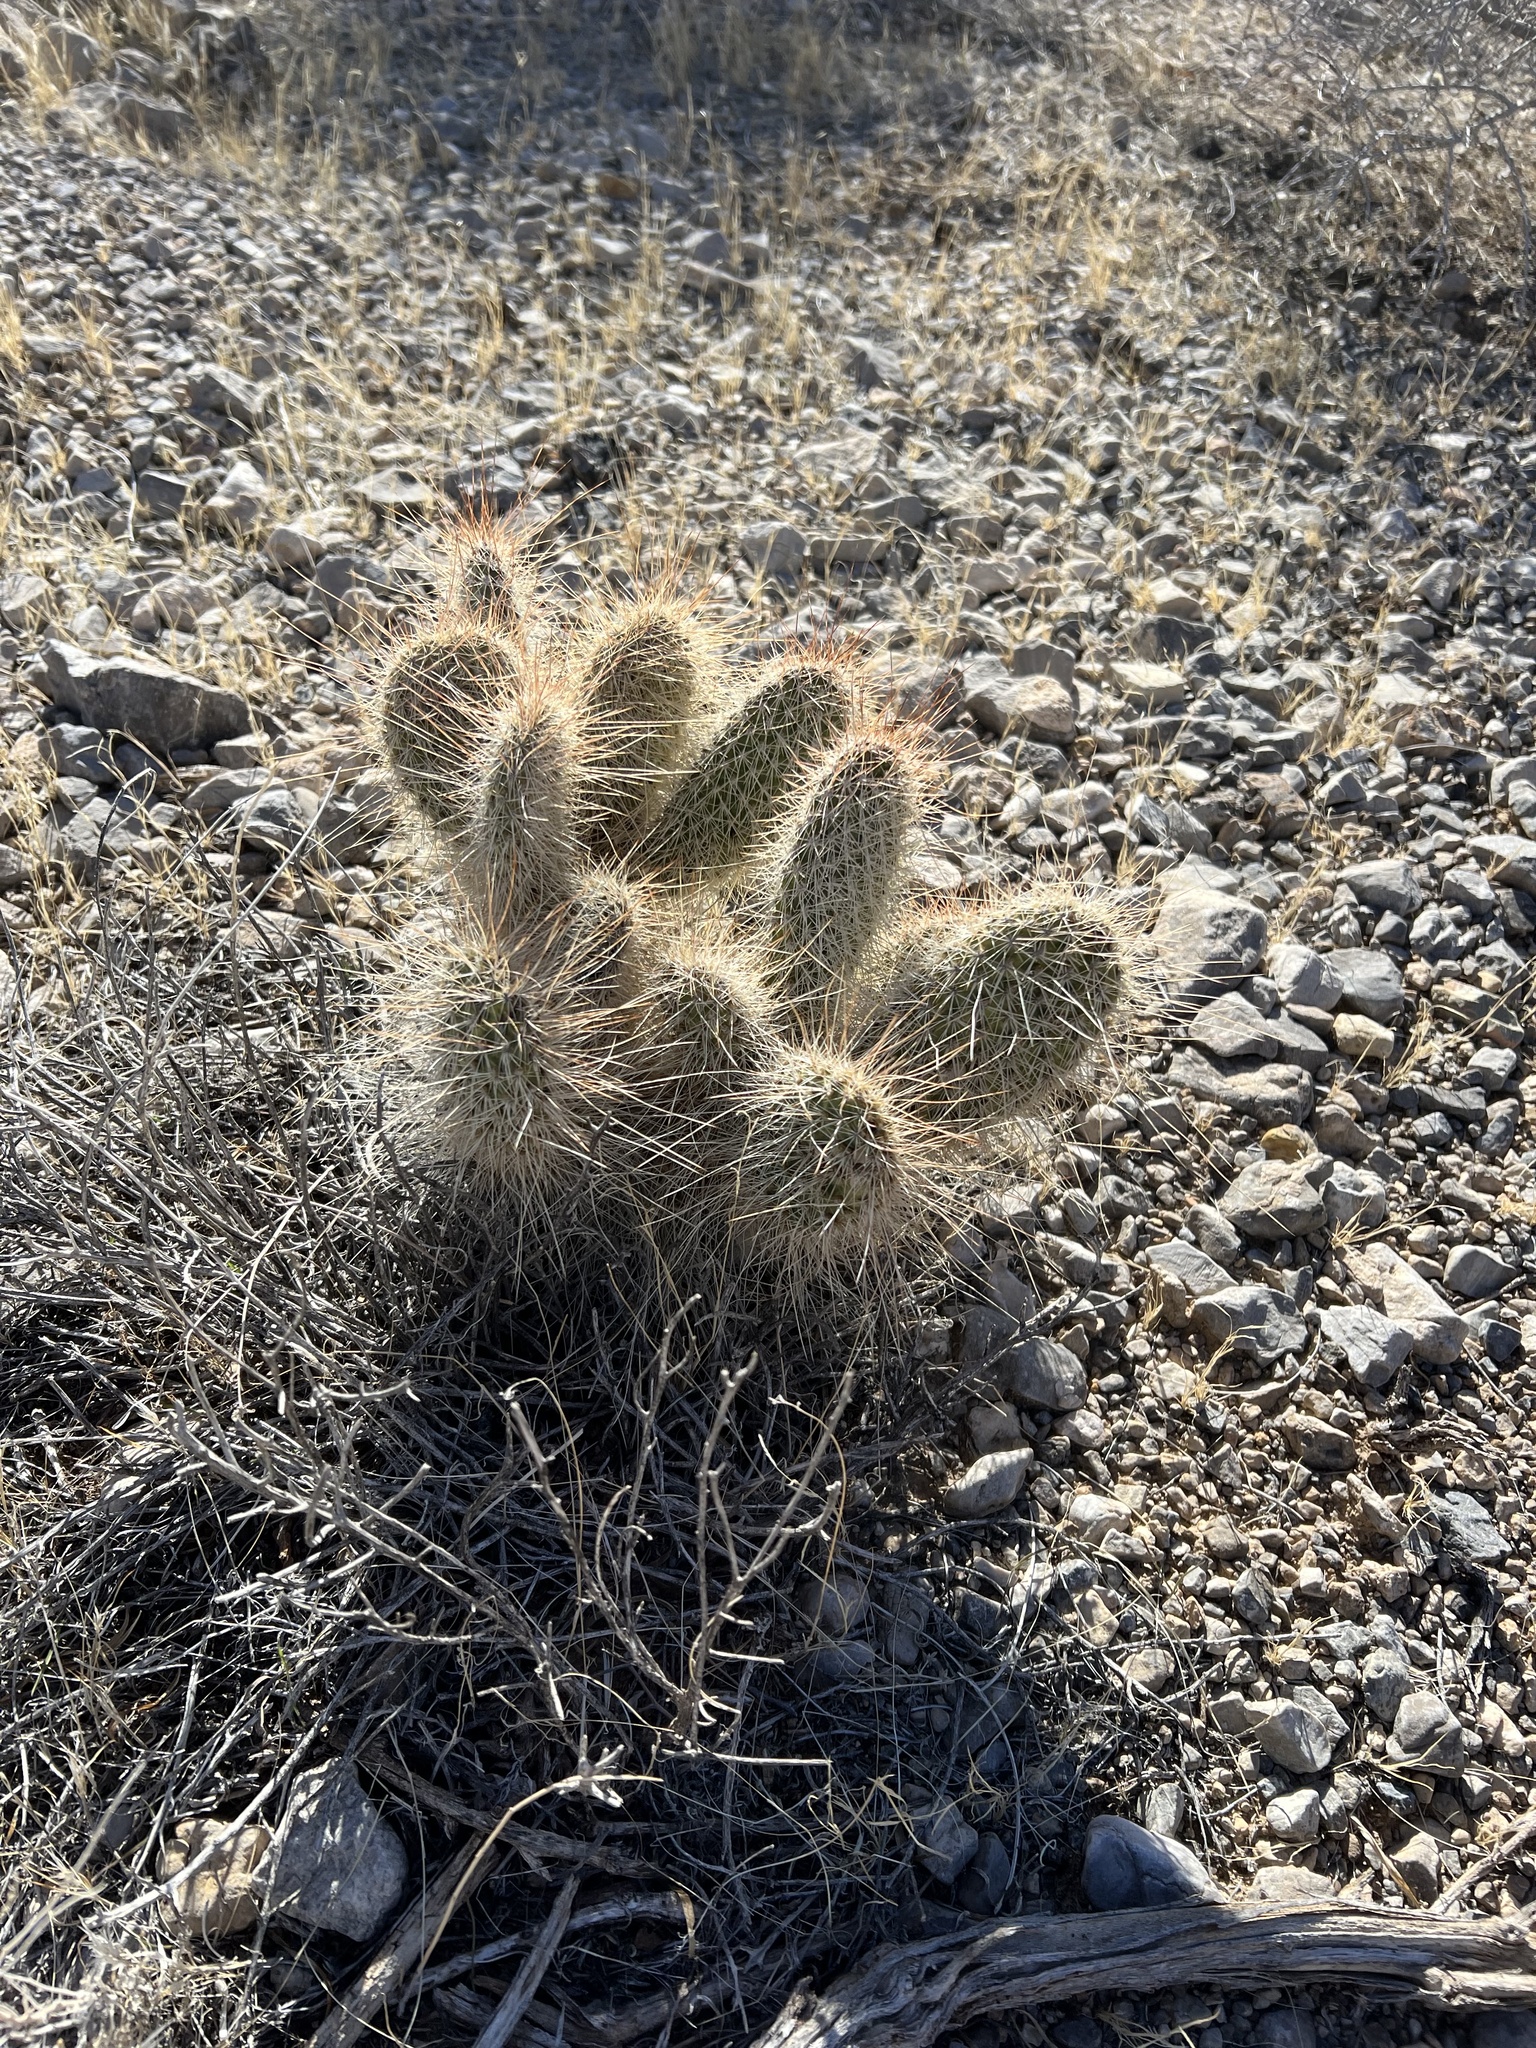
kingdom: Plantae
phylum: Tracheophyta
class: Magnoliopsida
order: Caryophyllales
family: Cactaceae
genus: Opuntia
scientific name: Opuntia polyacantha
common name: Plains prickly-pear
